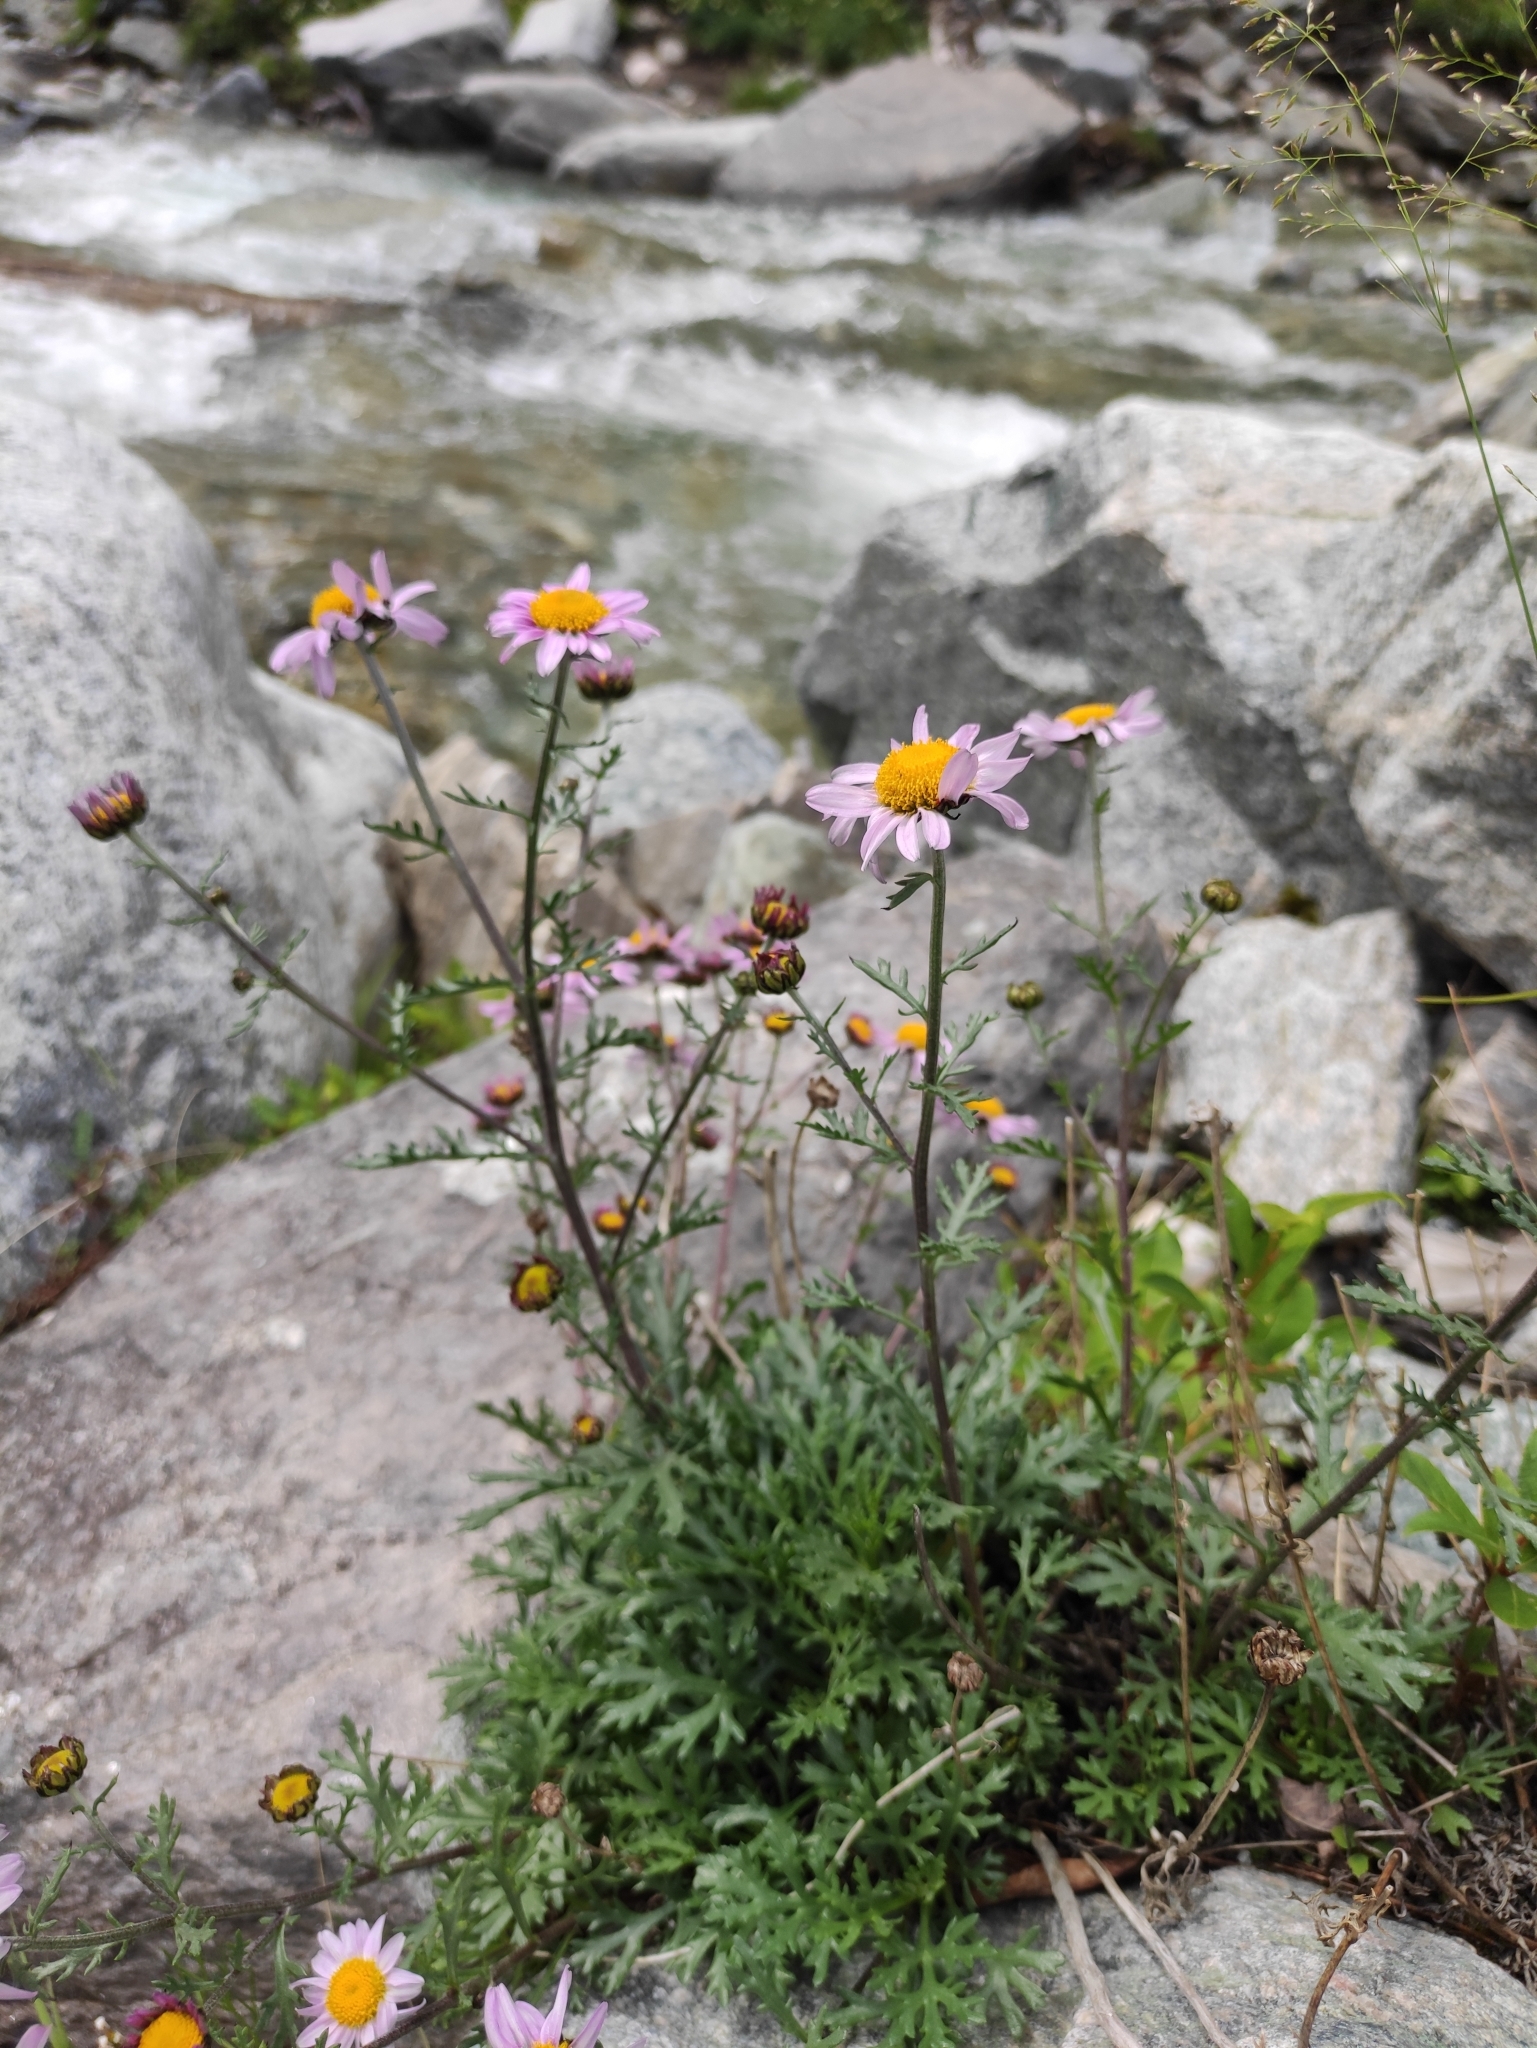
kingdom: Plantae
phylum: Tracheophyta
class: Magnoliopsida
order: Asterales
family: Asteraceae
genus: Chrysanthemum
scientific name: Chrysanthemum zawadzkii
